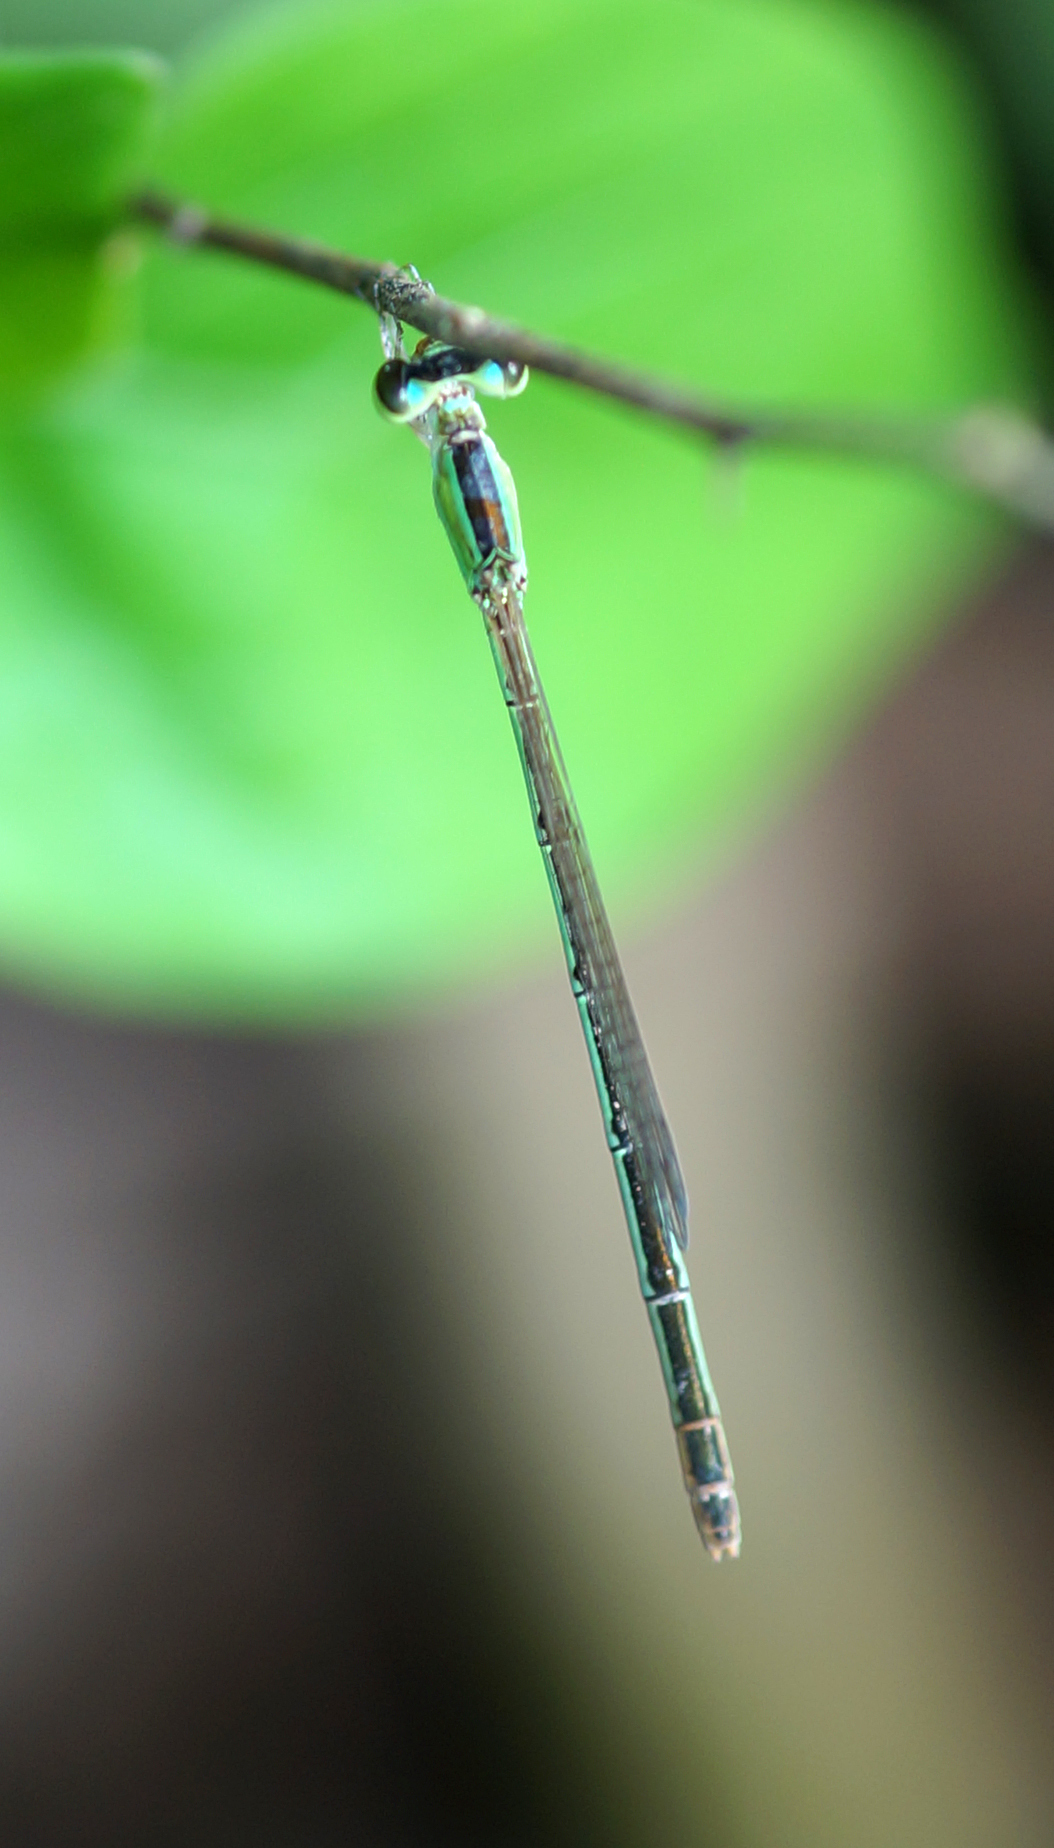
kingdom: Animalia
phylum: Arthropoda
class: Insecta
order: Odonata
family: Coenagrionidae
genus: Agriocnemis
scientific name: Agriocnemis pygmaea
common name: Pygmy wisp
